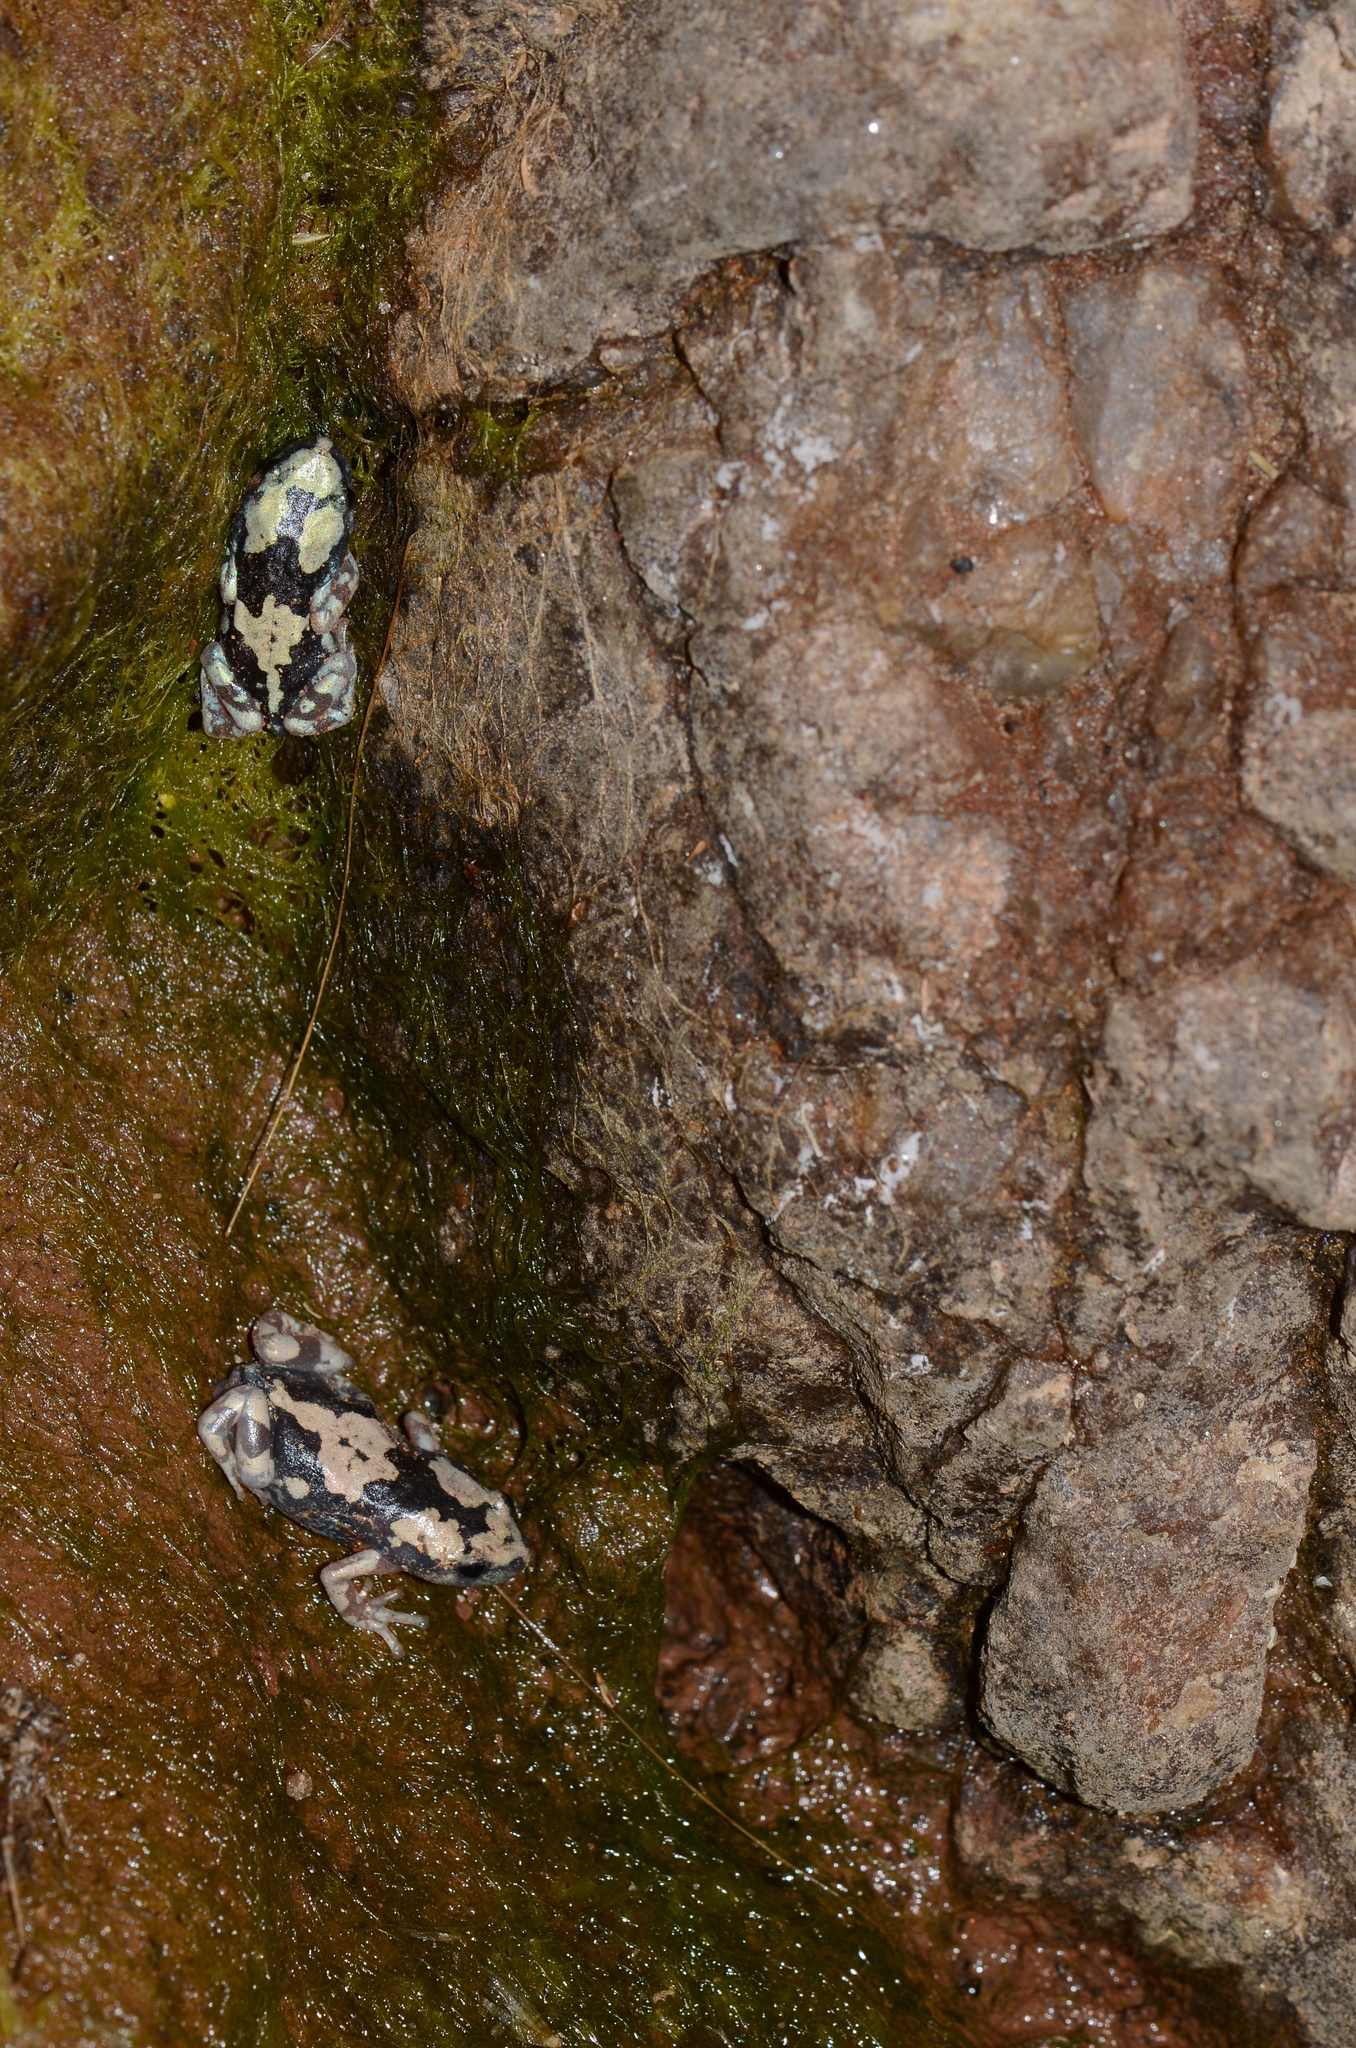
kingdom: Animalia
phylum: Chordata
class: Amphibia
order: Anura
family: Microhylidae
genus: Phrynomantis
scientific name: Phrynomantis annectens
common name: Marbled rubber frog
